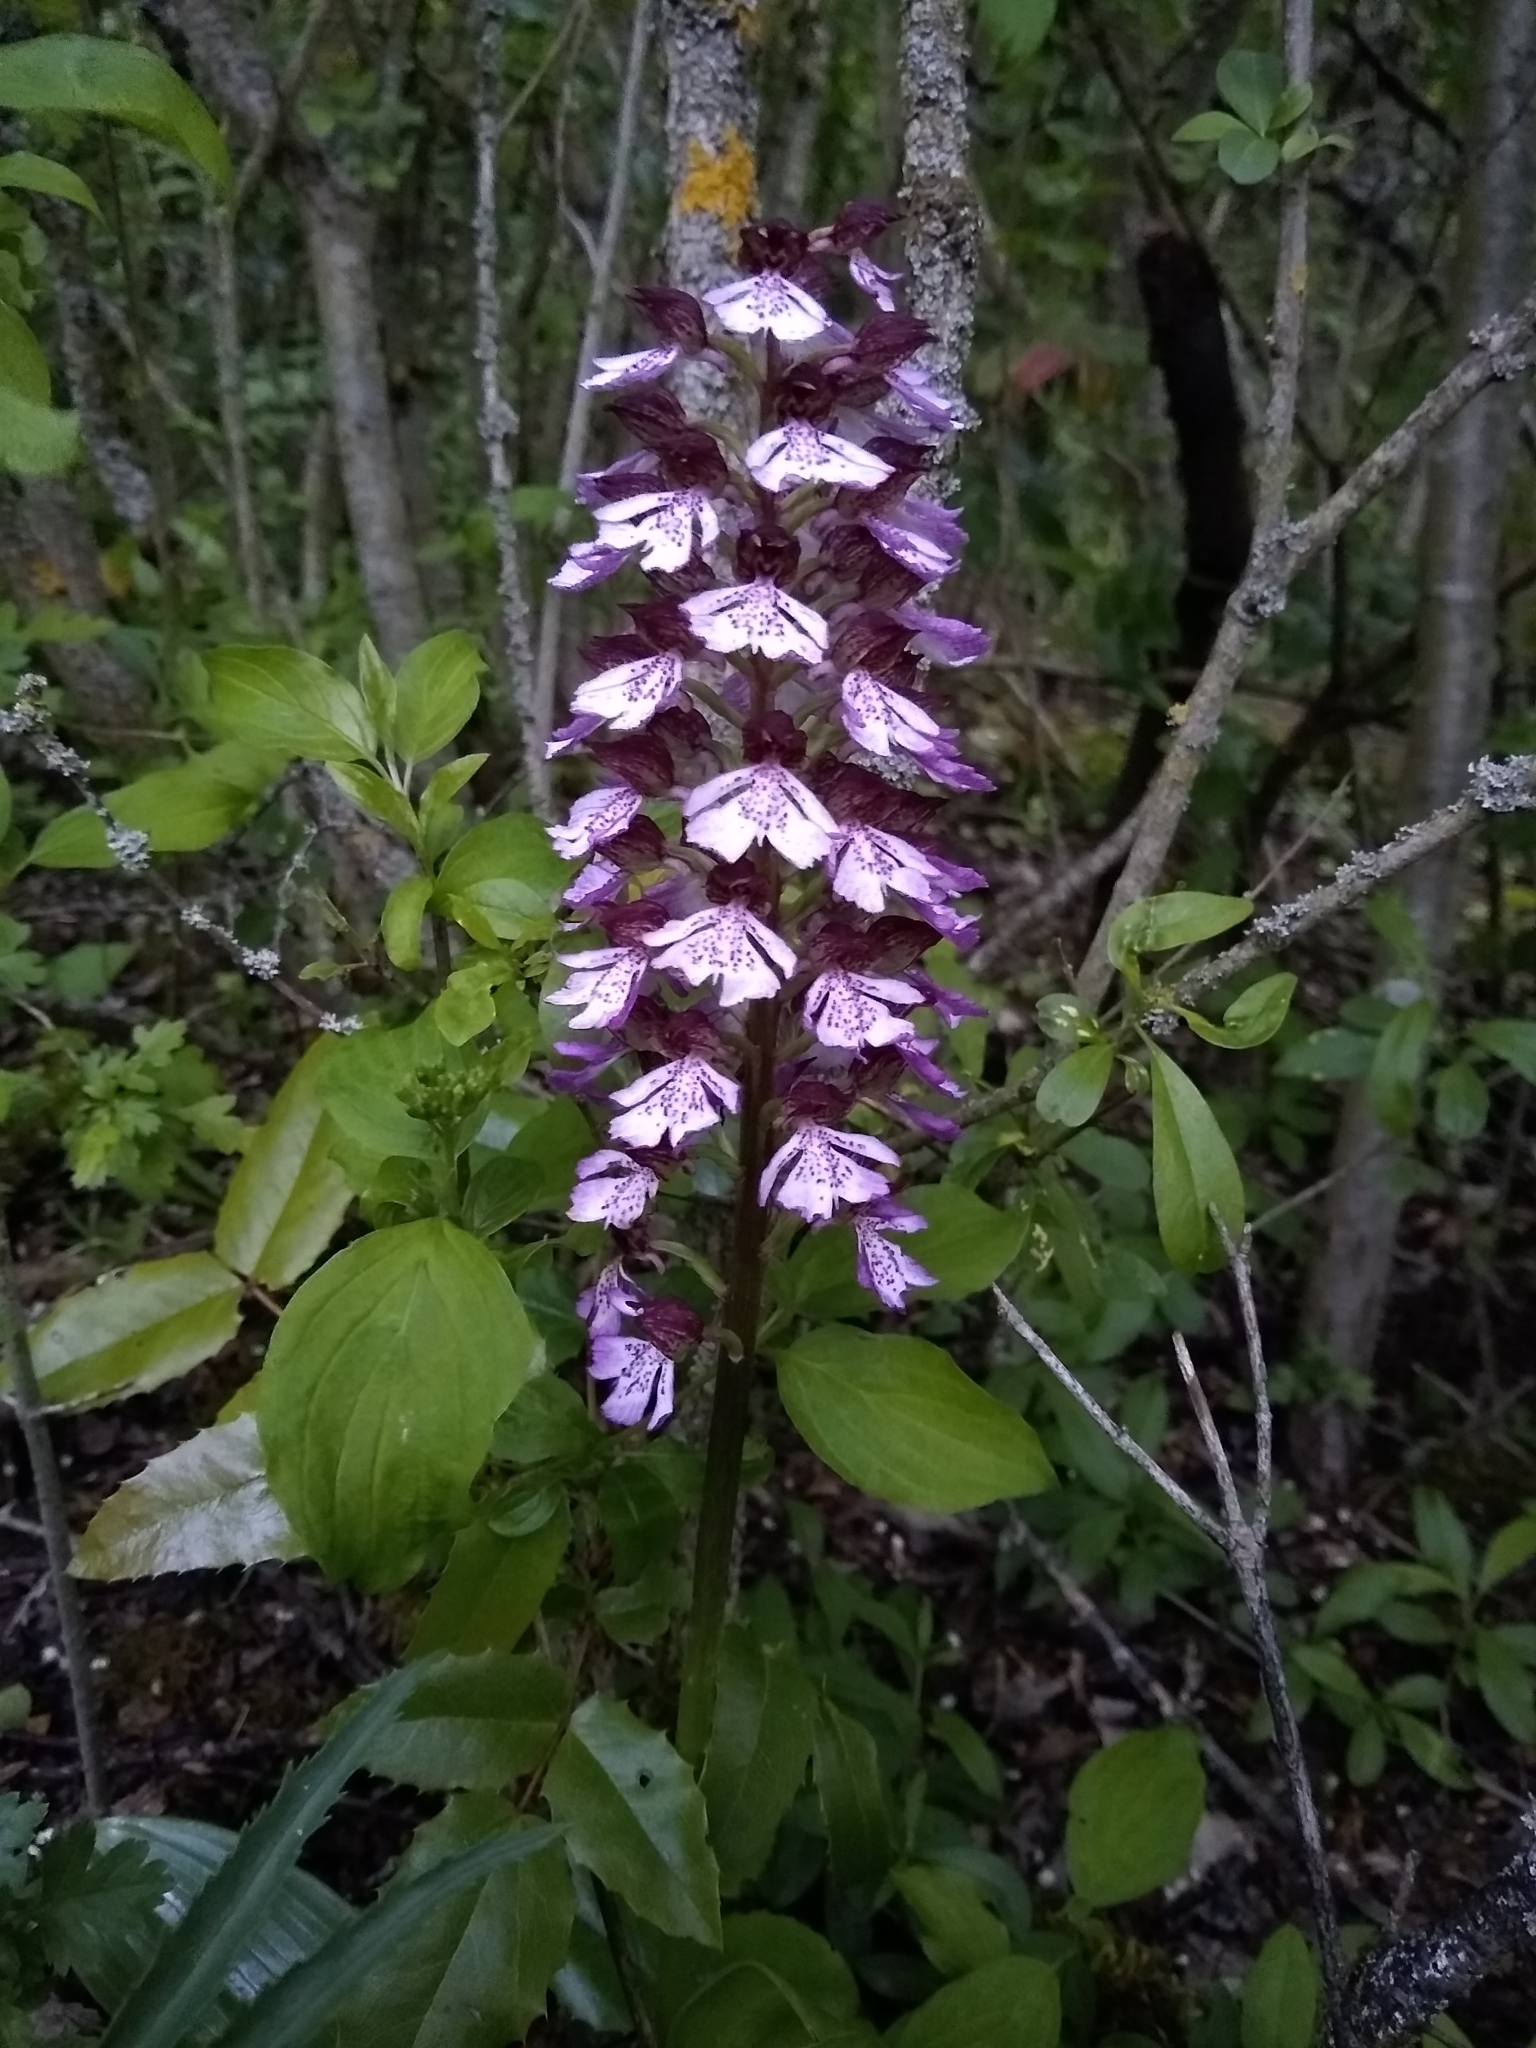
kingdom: Plantae
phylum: Tracheophyta
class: Liliopsida
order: Asparagales
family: Orchidaceae
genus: Orchis
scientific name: Orchis purpurea
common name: Lady orchid
